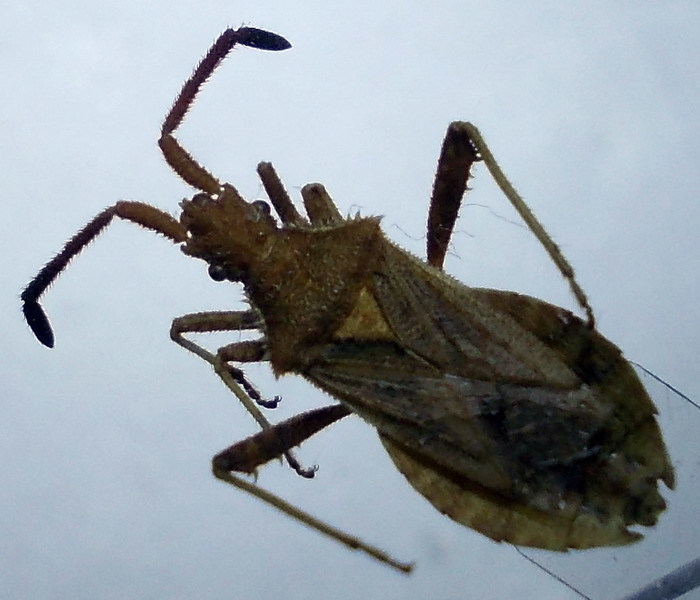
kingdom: Animalia
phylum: Arthropoda
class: Insecta
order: Hemiptera
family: Coreidae
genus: Coriomeris
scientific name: Coriomeris denticulatus
